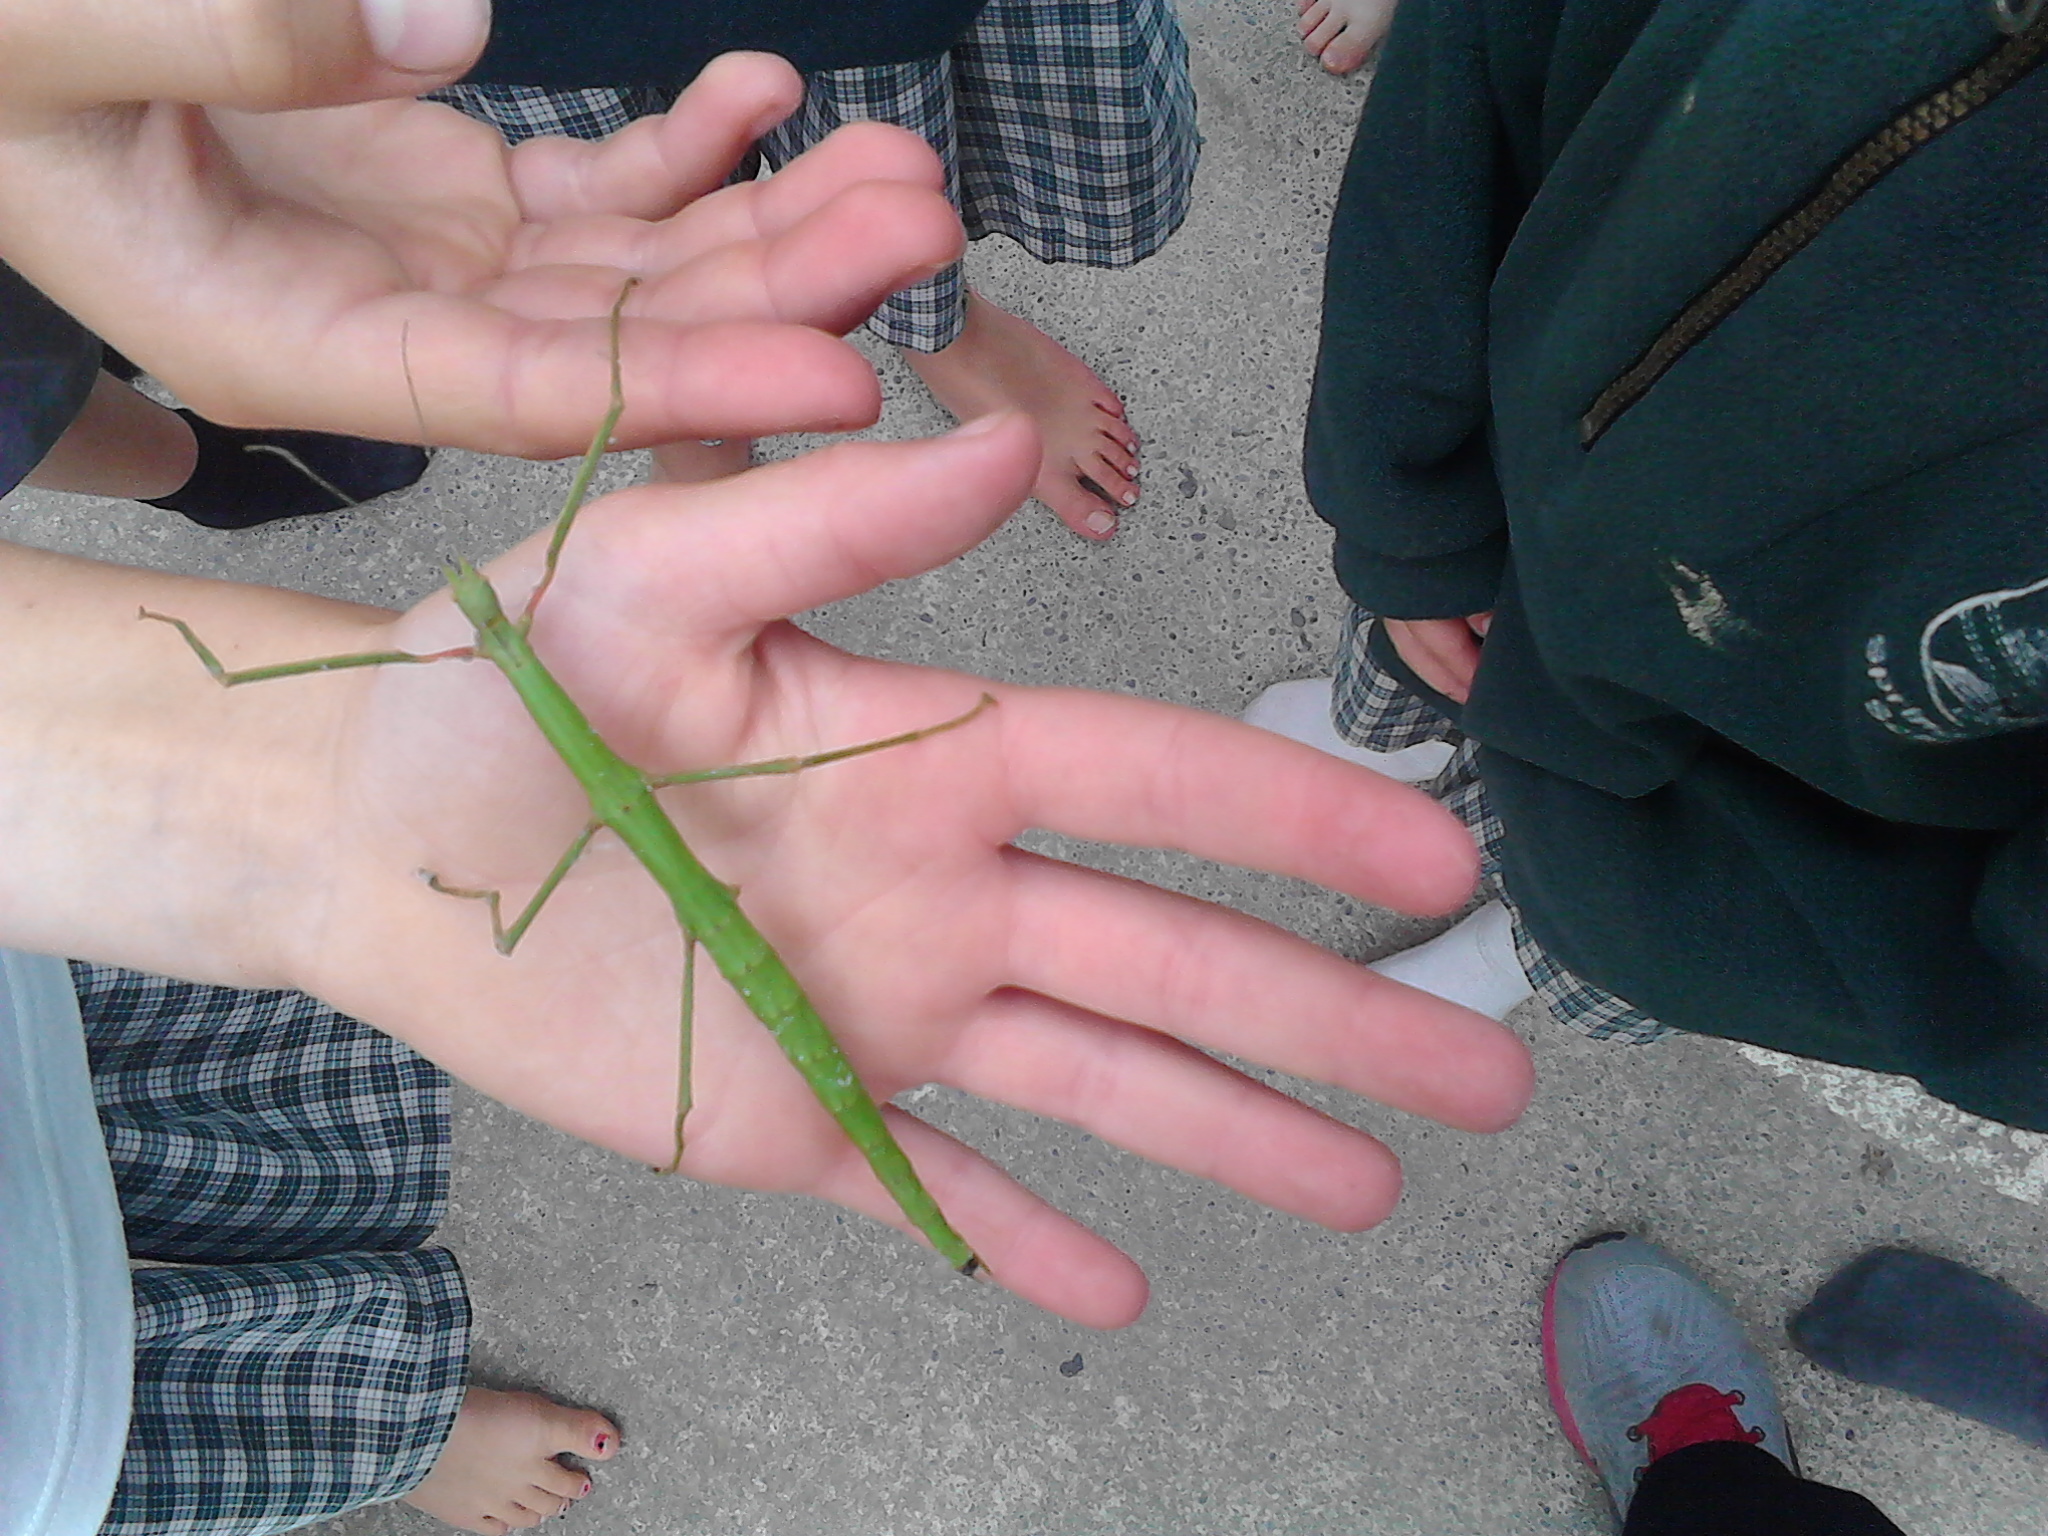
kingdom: Animalia
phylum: Arthropoda
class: Insecta
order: Phasmida
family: Phasmatidae
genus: Clitarchus
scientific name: Clitarchus hookeri
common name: Smooth stick insect
